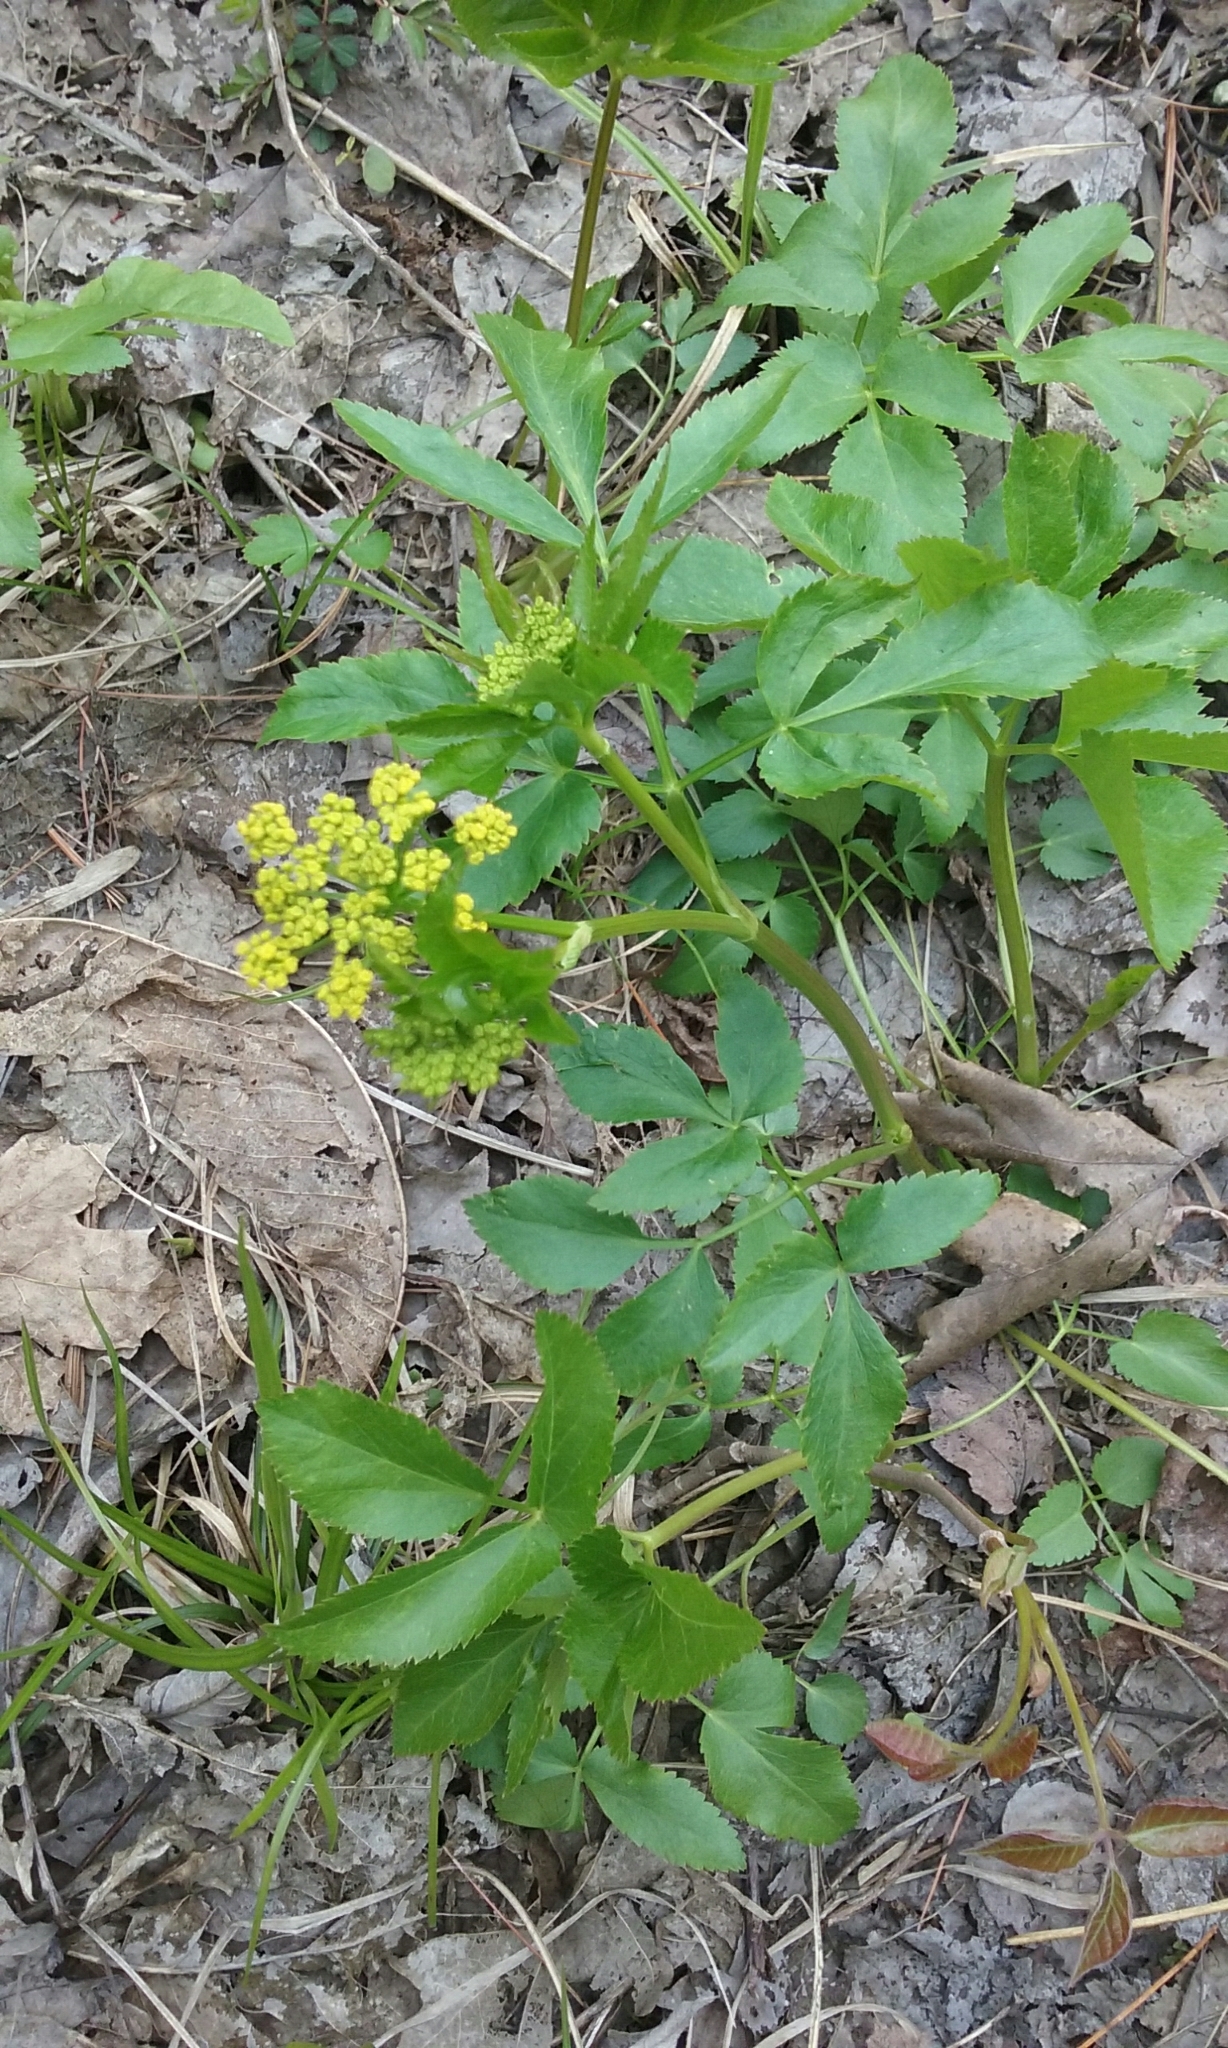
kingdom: Plantae
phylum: Tracheophyta
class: Magnoliopsida
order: Apiales
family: Apiaceae
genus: Zizia
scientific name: Zizia aurea
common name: Golden alexanders
